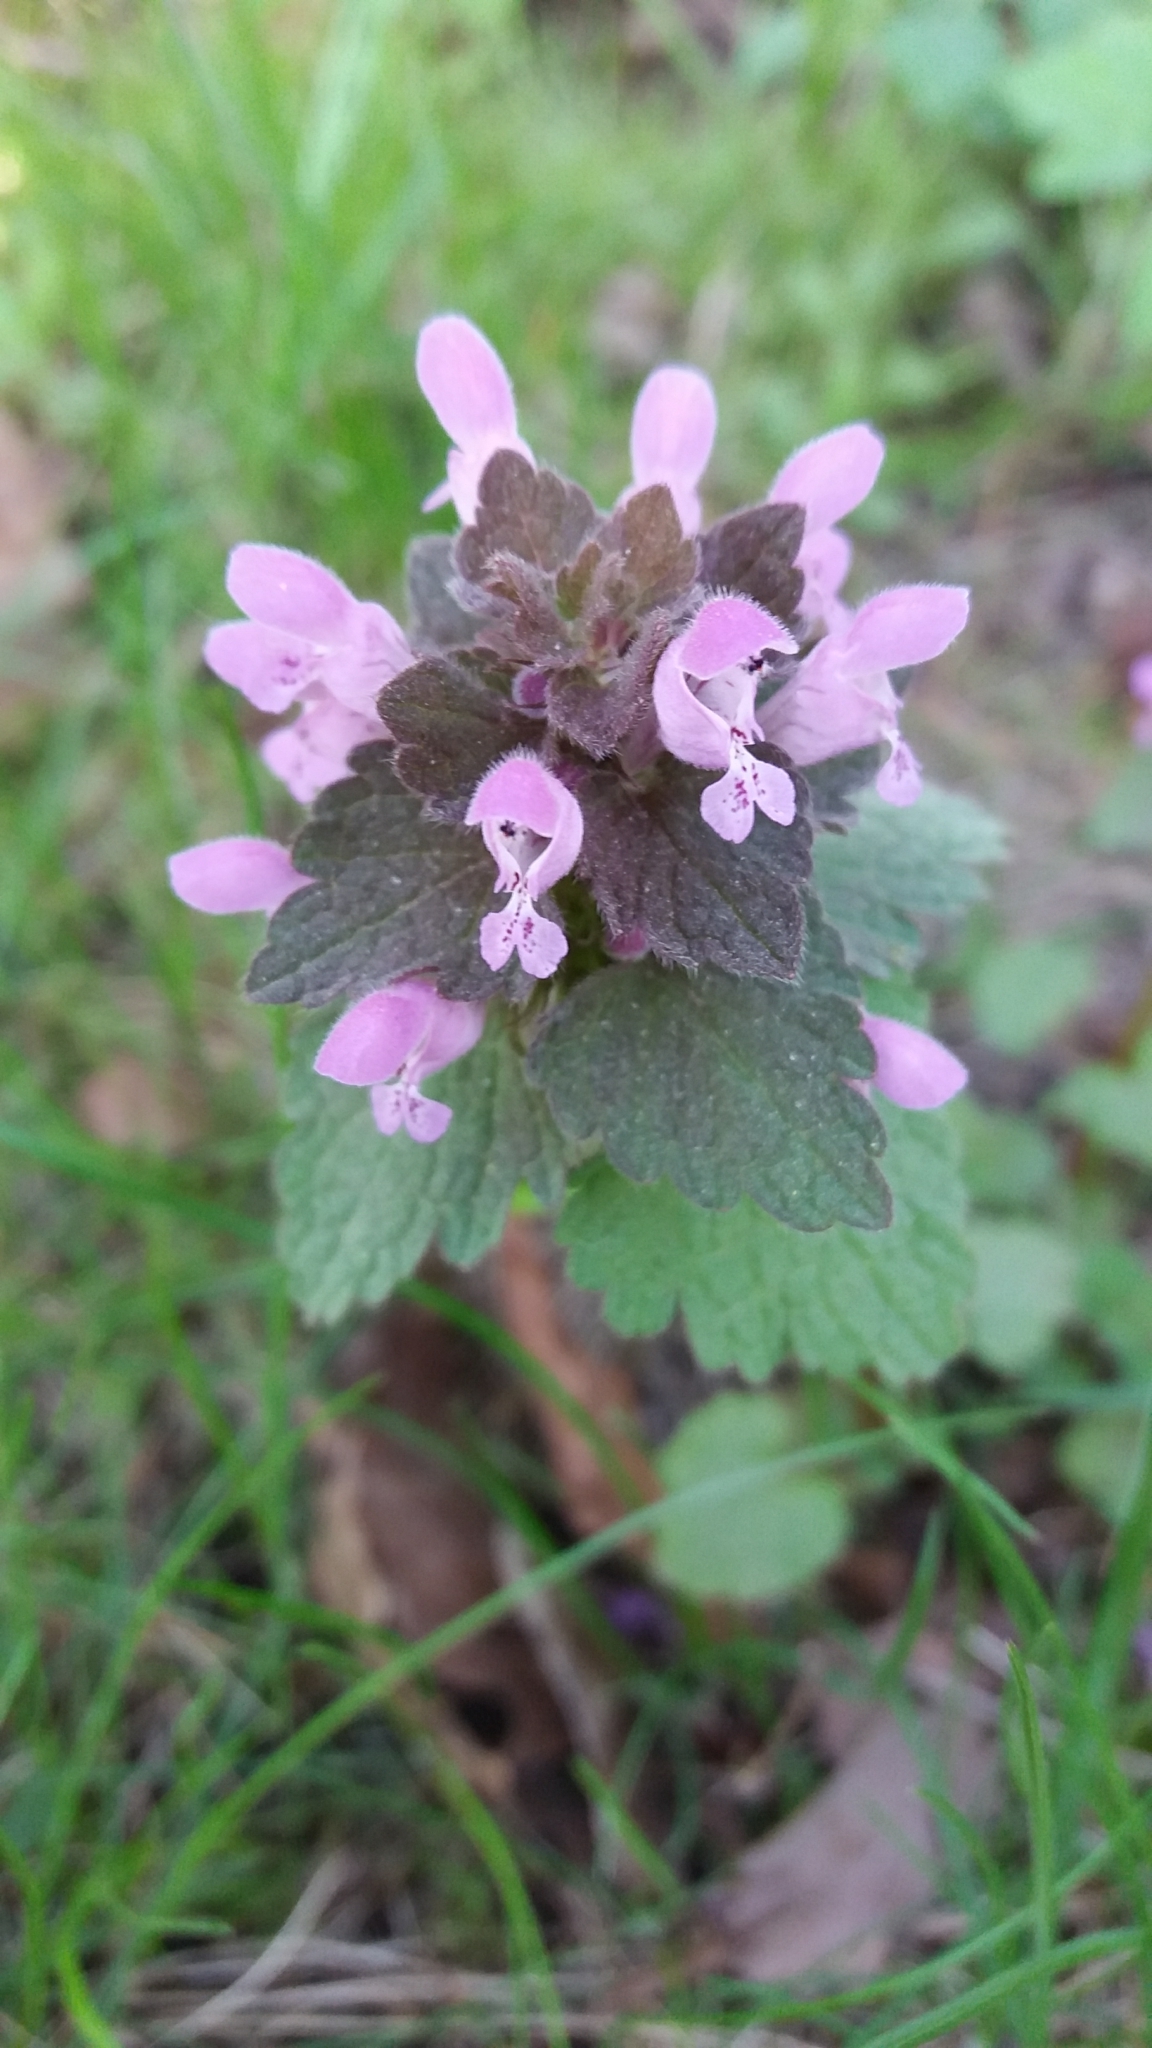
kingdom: Plantae
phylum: Tracheophyta
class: Magnoliopsida
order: Lamiales
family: Lamiaceae
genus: Lamium
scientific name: Lamium purpureum
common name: Red dead-nettle
